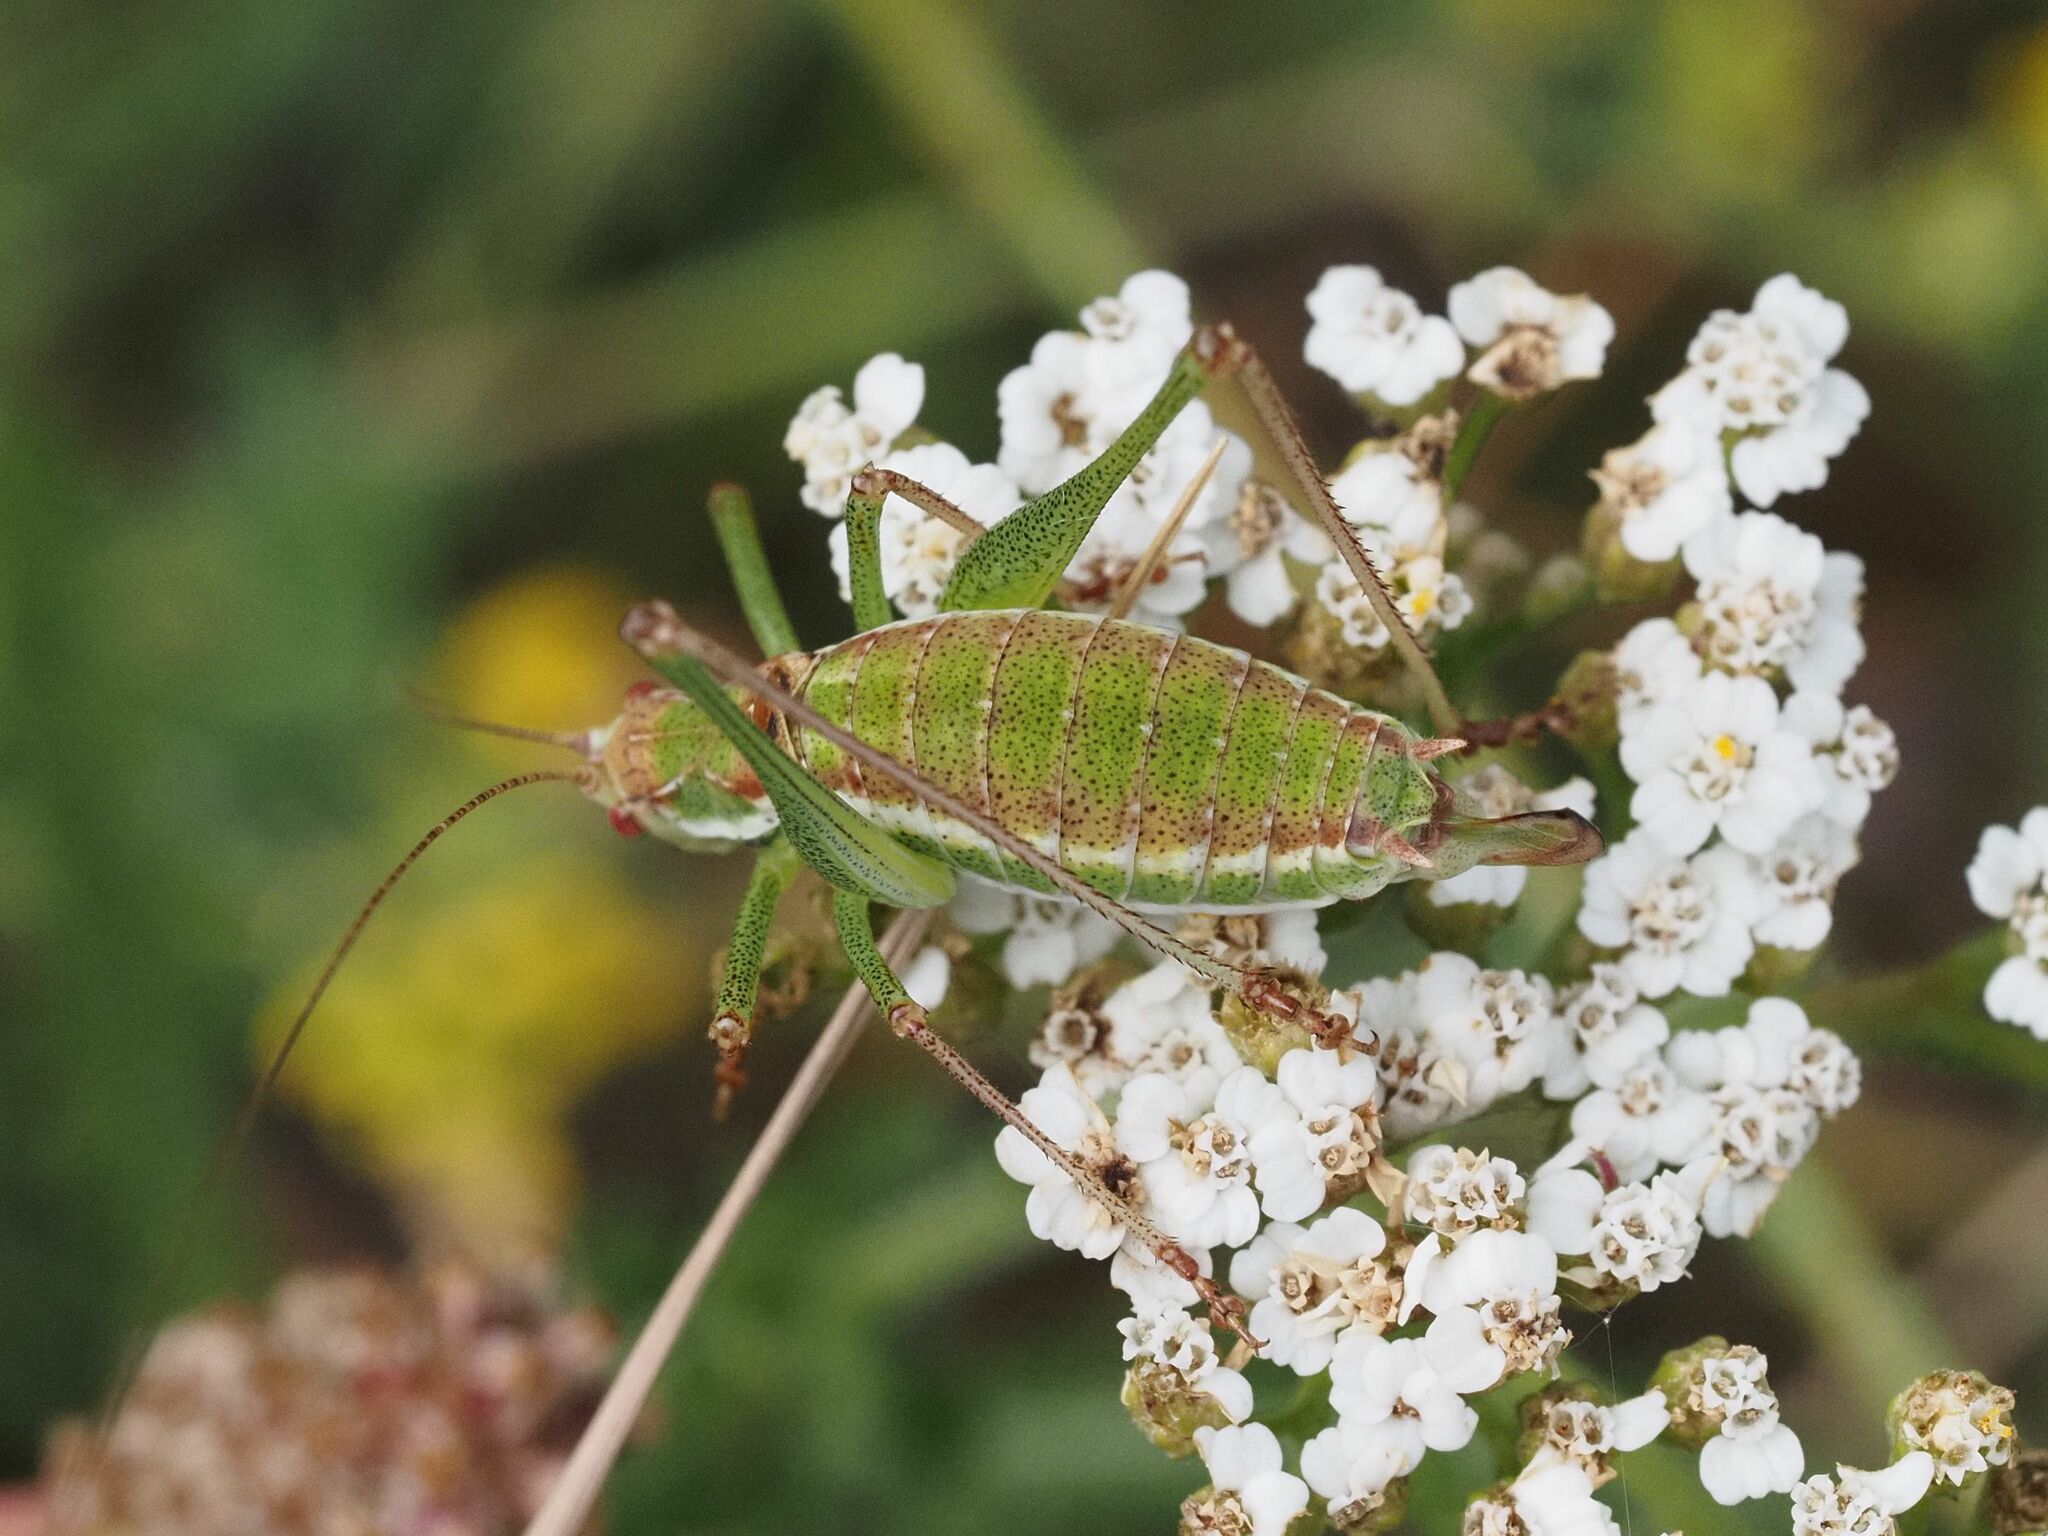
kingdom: Animalia
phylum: Arthropoda
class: Insecta
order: Orthoptera
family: Tettigoniidae
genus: Leptophyes
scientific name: Leptophyes albovittata
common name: Striped bush-cricket
